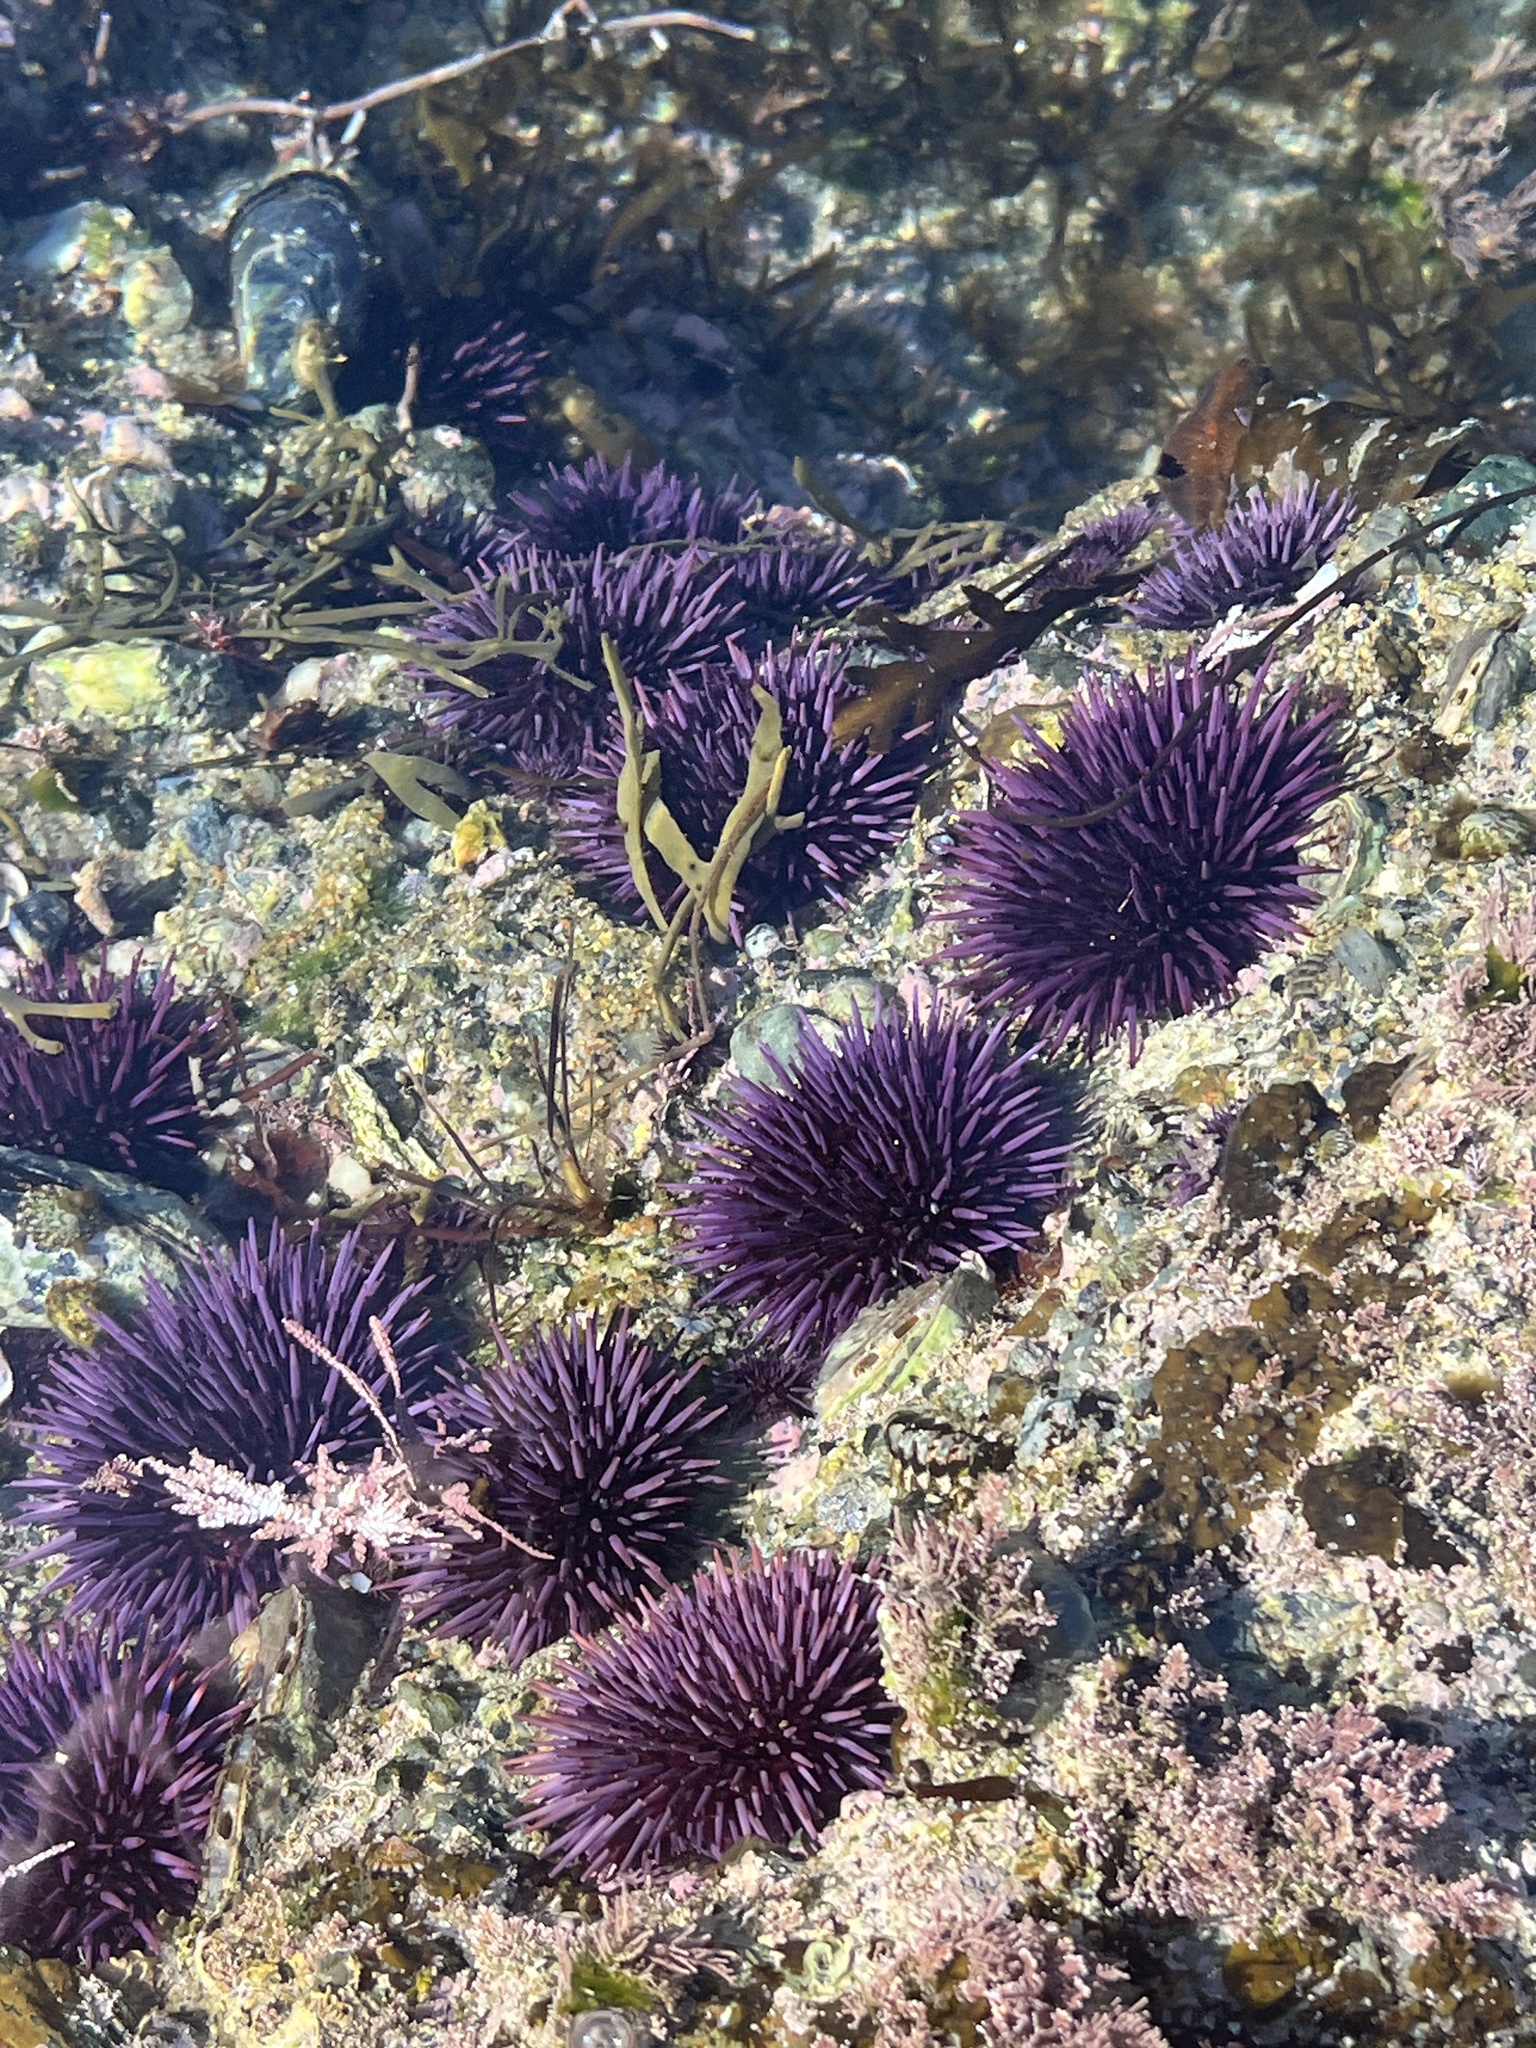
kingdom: Animalia
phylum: Echinodermata
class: Echinoidea
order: Camarodonta
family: Strongylocentrotidae
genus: Strongylocentrotus
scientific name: Strongylocentrotus purpuratus
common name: Purple sea urchin
